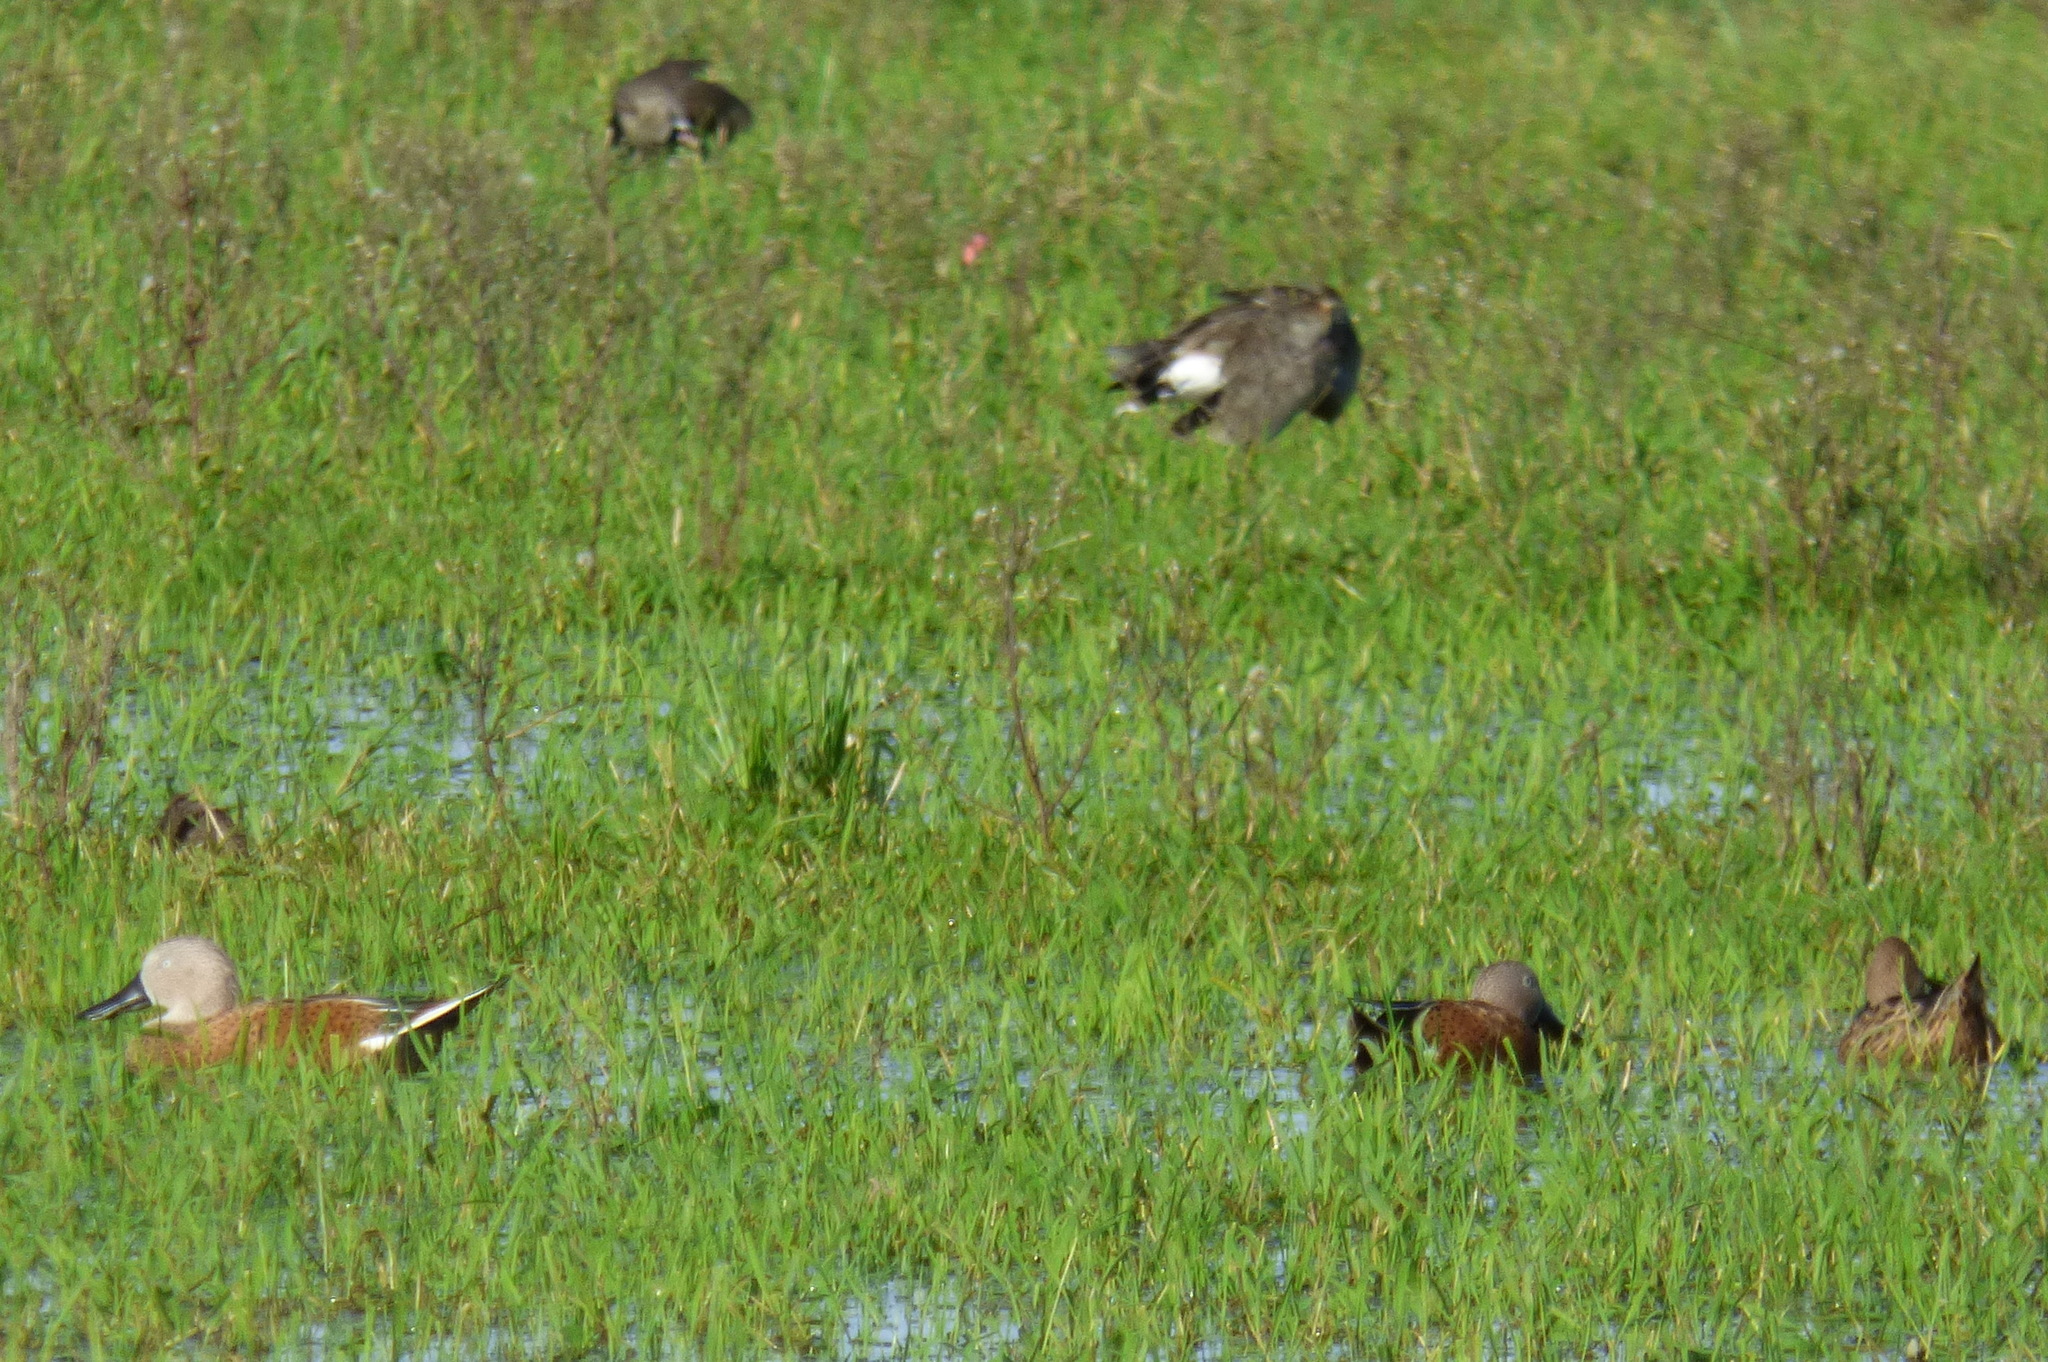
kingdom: Animalia
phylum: Chordata
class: Aves
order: Anseriformes
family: Anatidae
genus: Spatula
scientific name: Spatula platalea
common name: Red shoveler
